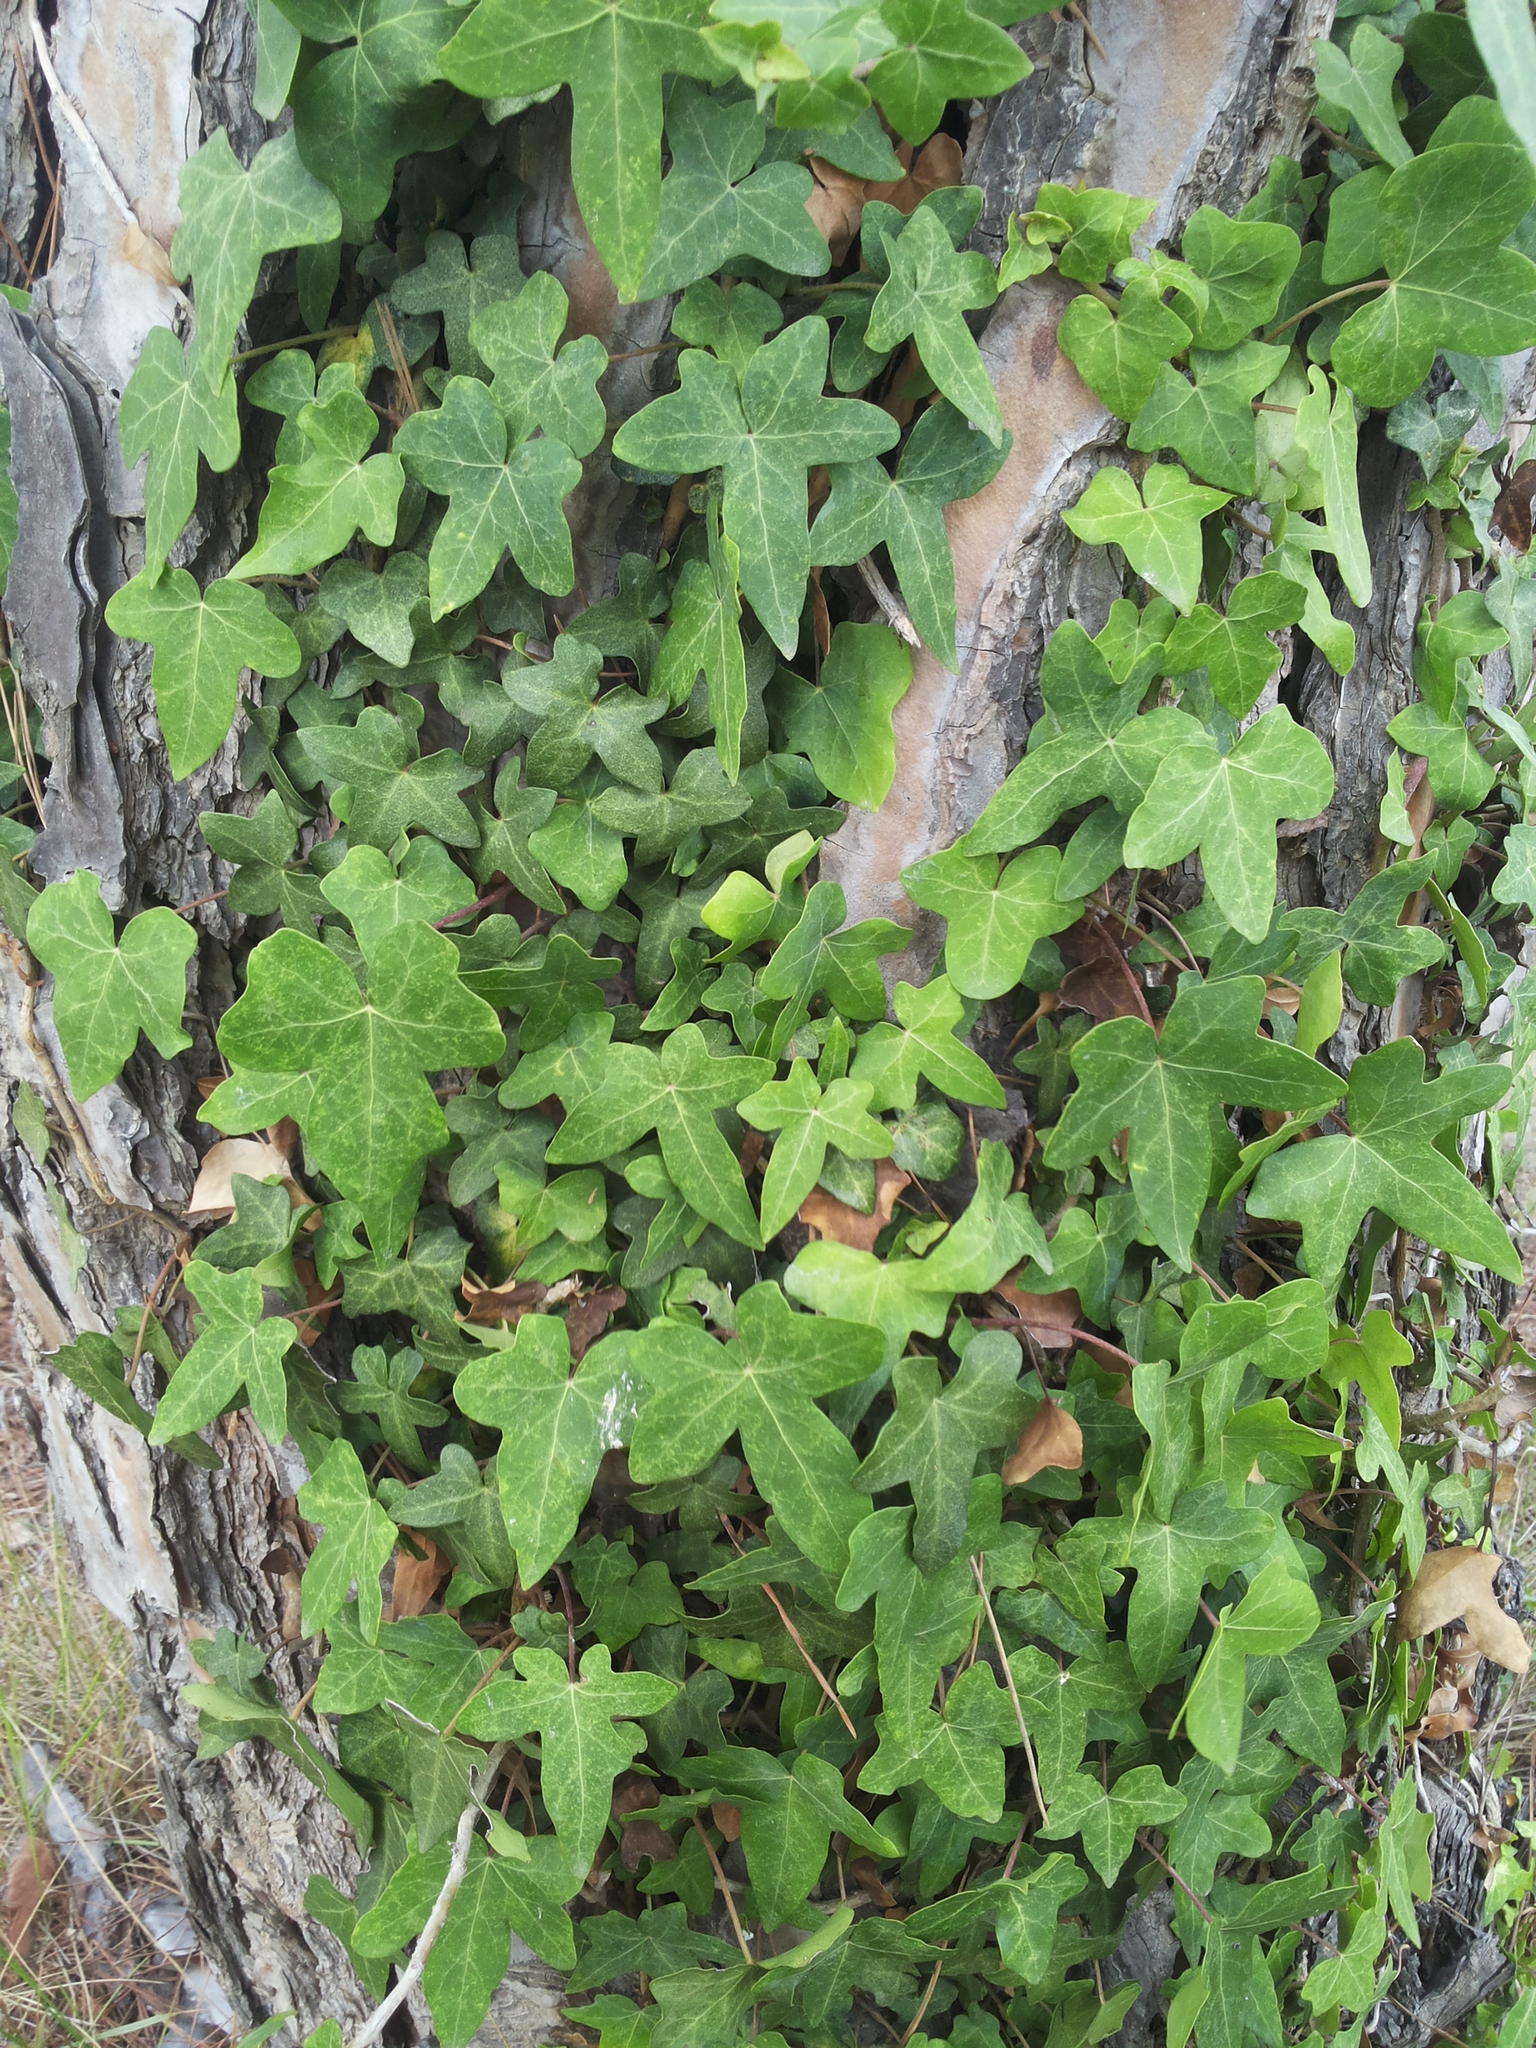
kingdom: Plantae
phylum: Tracheophyta
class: Magnoliopsida
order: Apiales
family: Araliaceae
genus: Hedera
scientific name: Hedera helix
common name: Ivy
